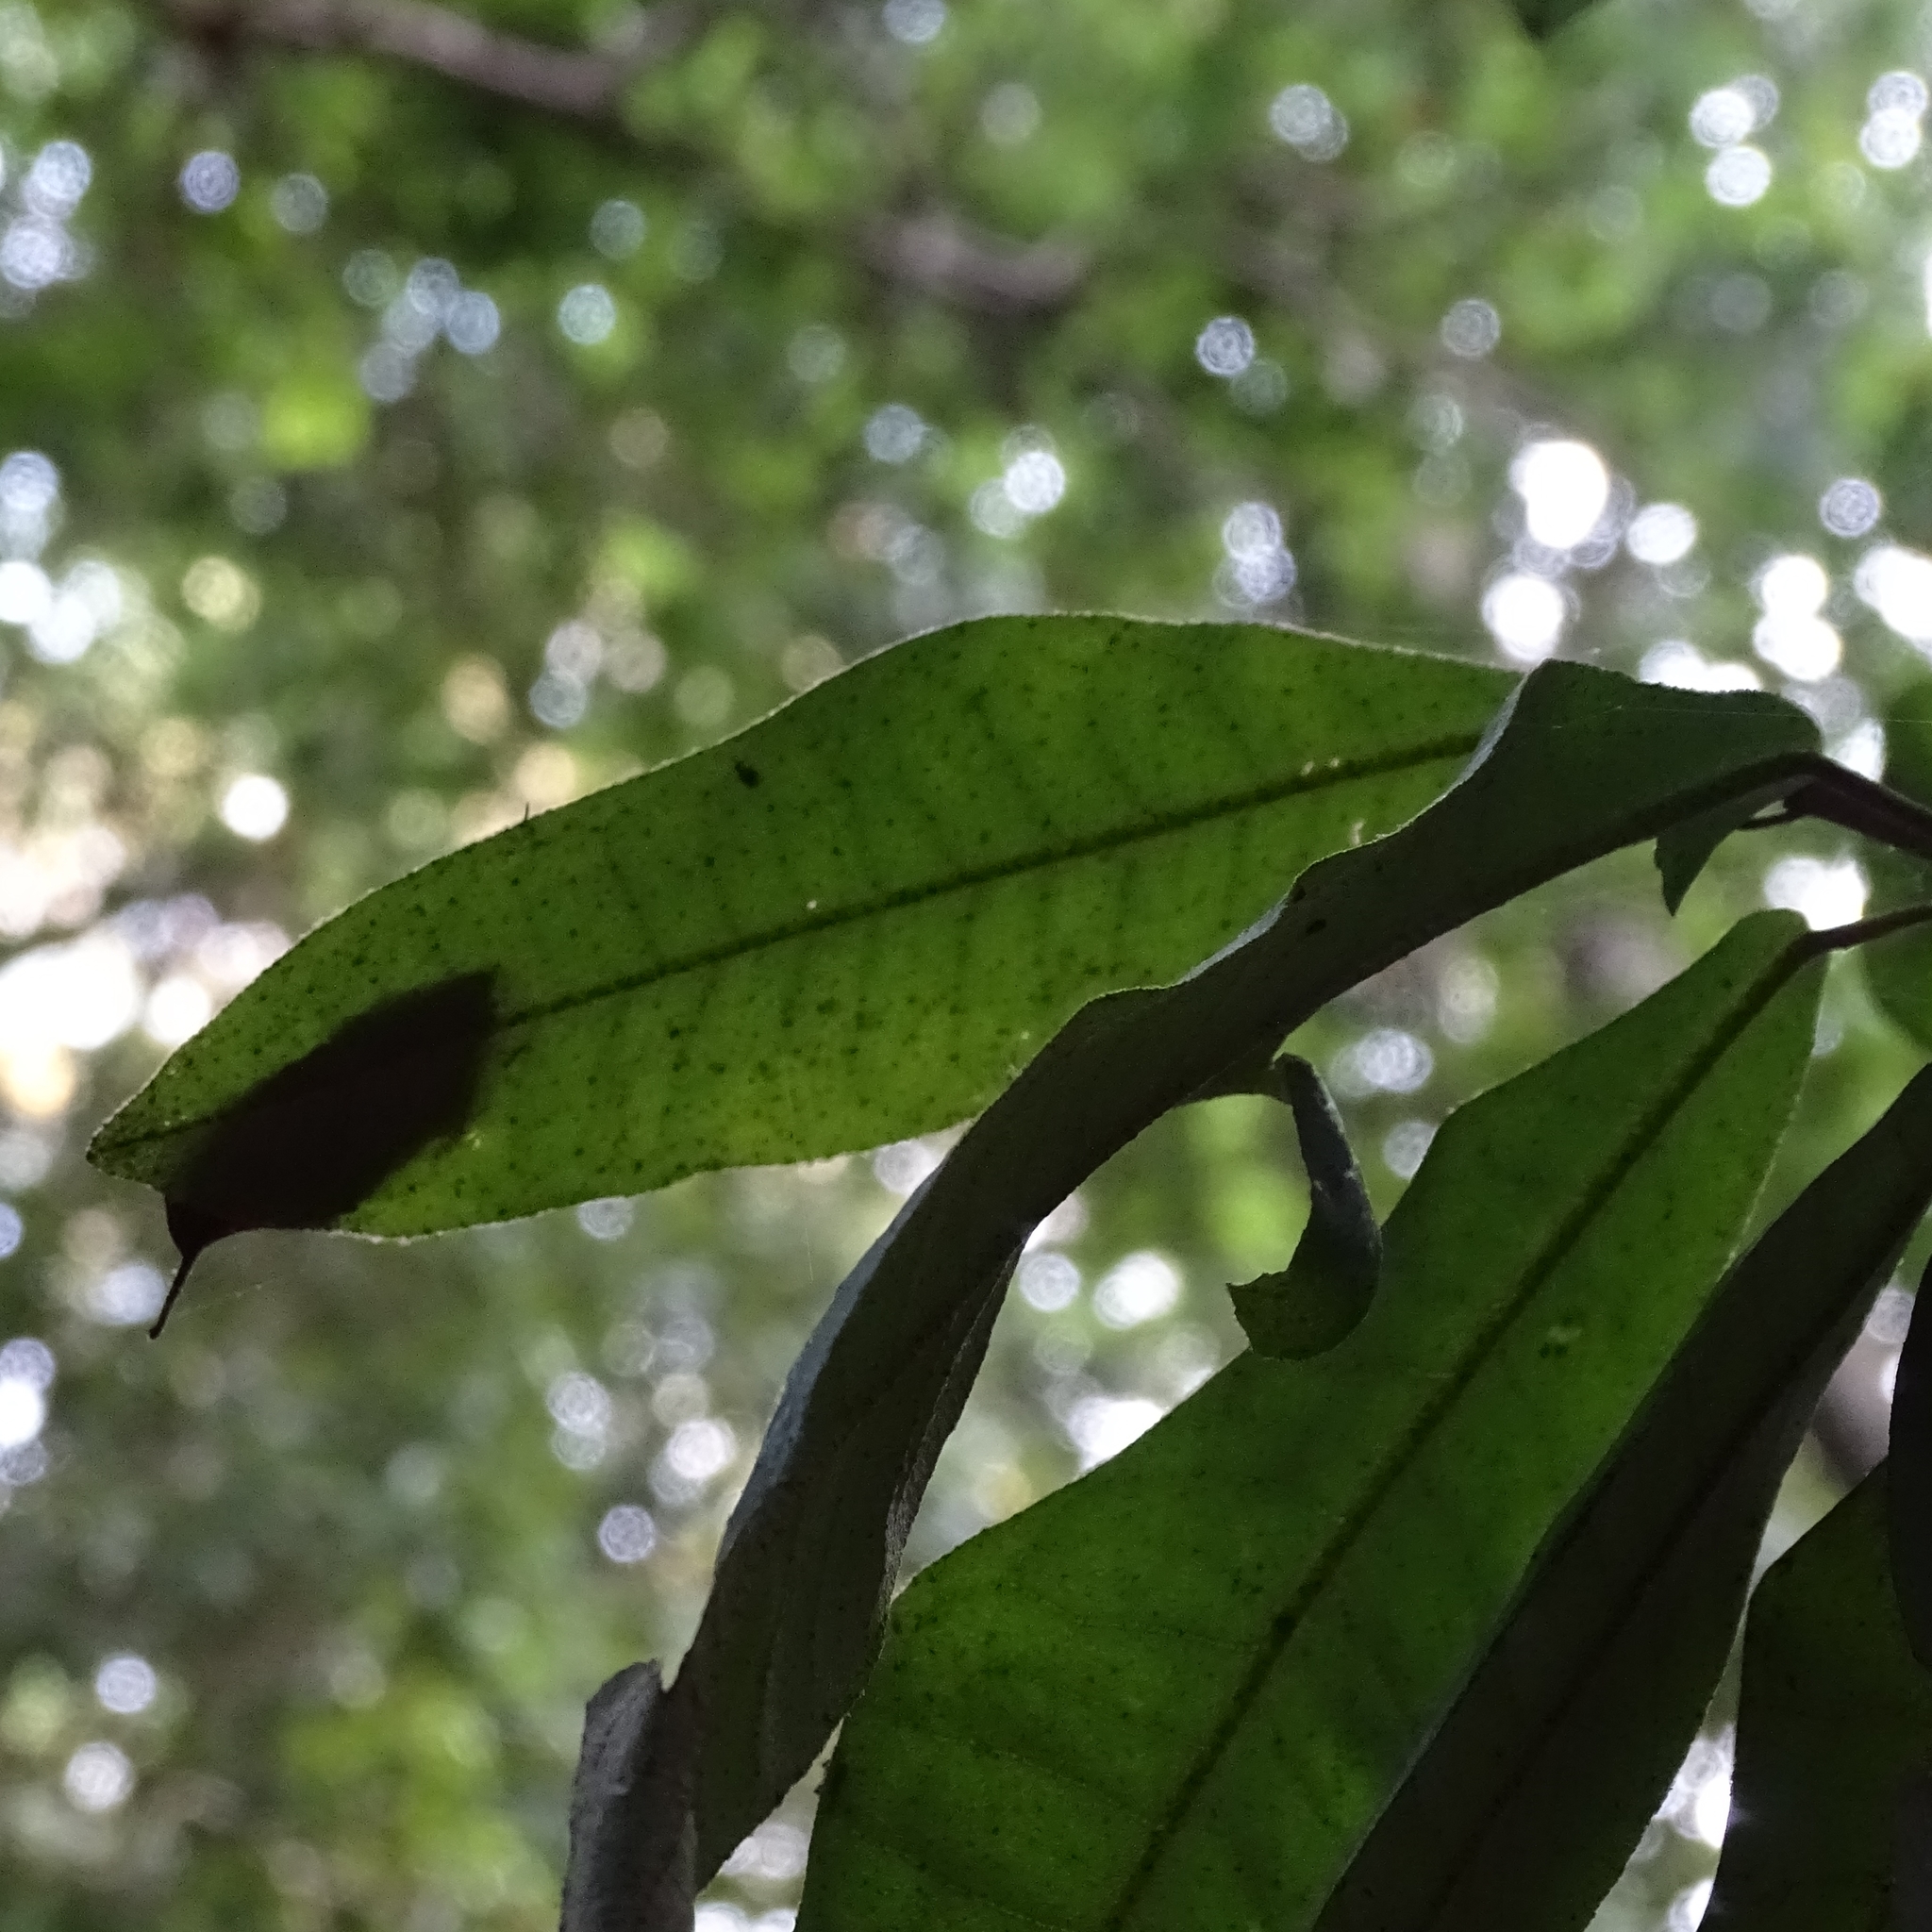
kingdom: Plantae
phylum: Tracheophyta
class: Magnoliopsida
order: Berberidopsidales
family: Aextoxicaceae
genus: Aextoxicon
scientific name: Aextoxicon punctatum
